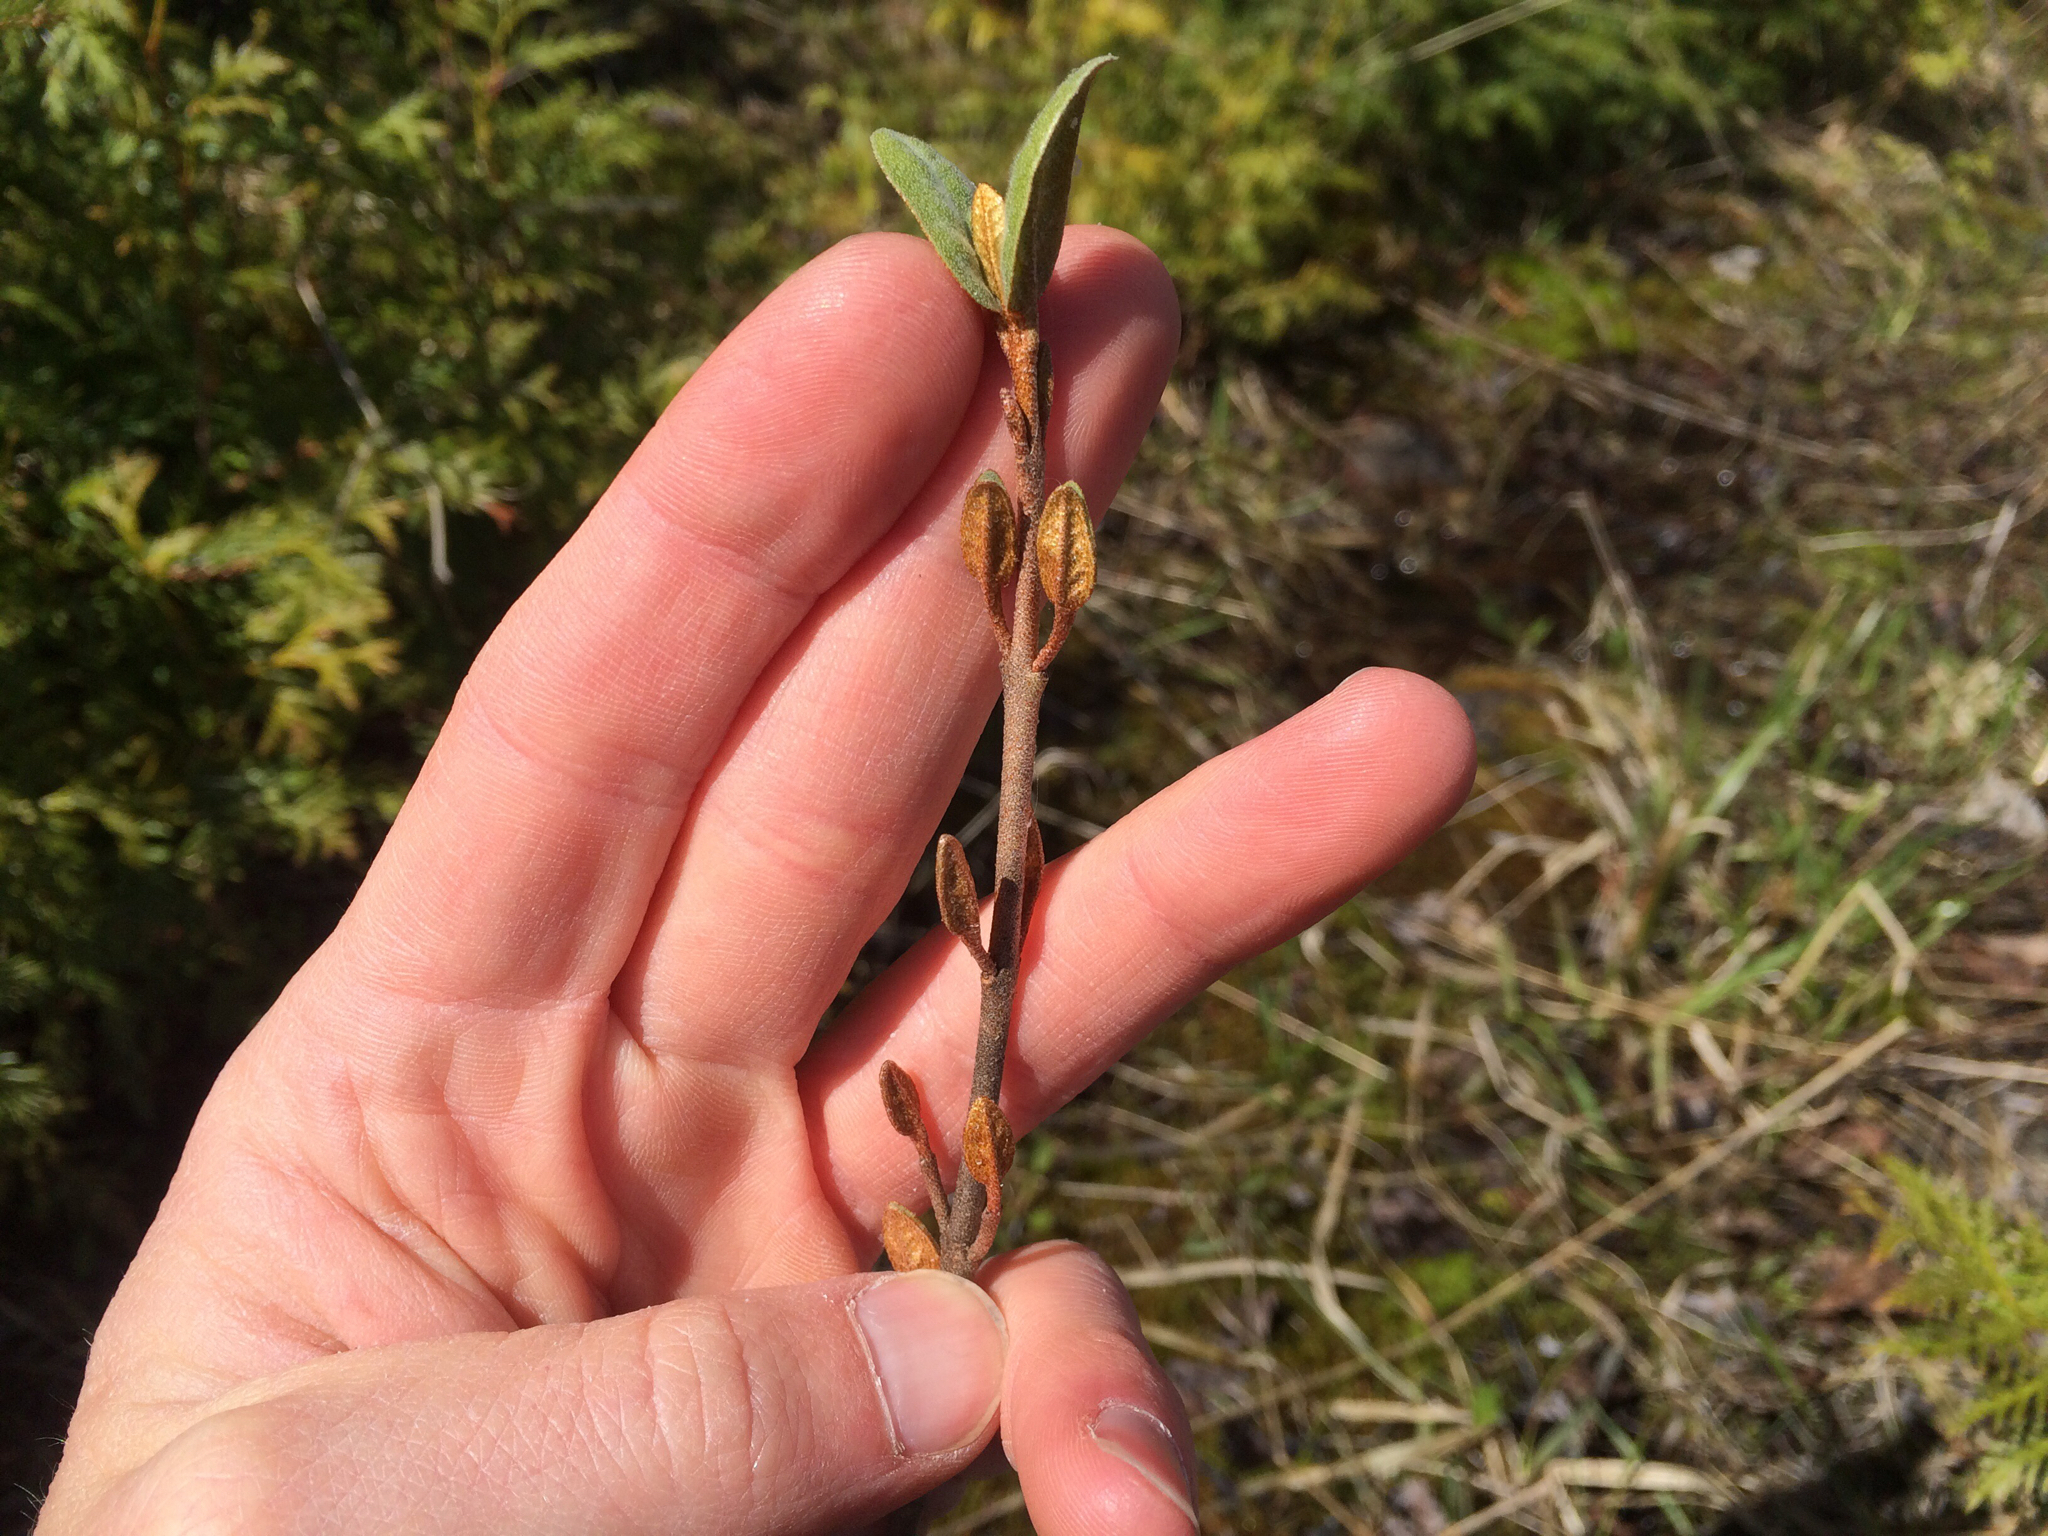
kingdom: Plantae
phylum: Tracheophyta
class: Magnoliopsida
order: Rosales
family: Elaeagnaceae
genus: Shepherdia
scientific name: Shepherdia canadensis
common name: Soapberry
